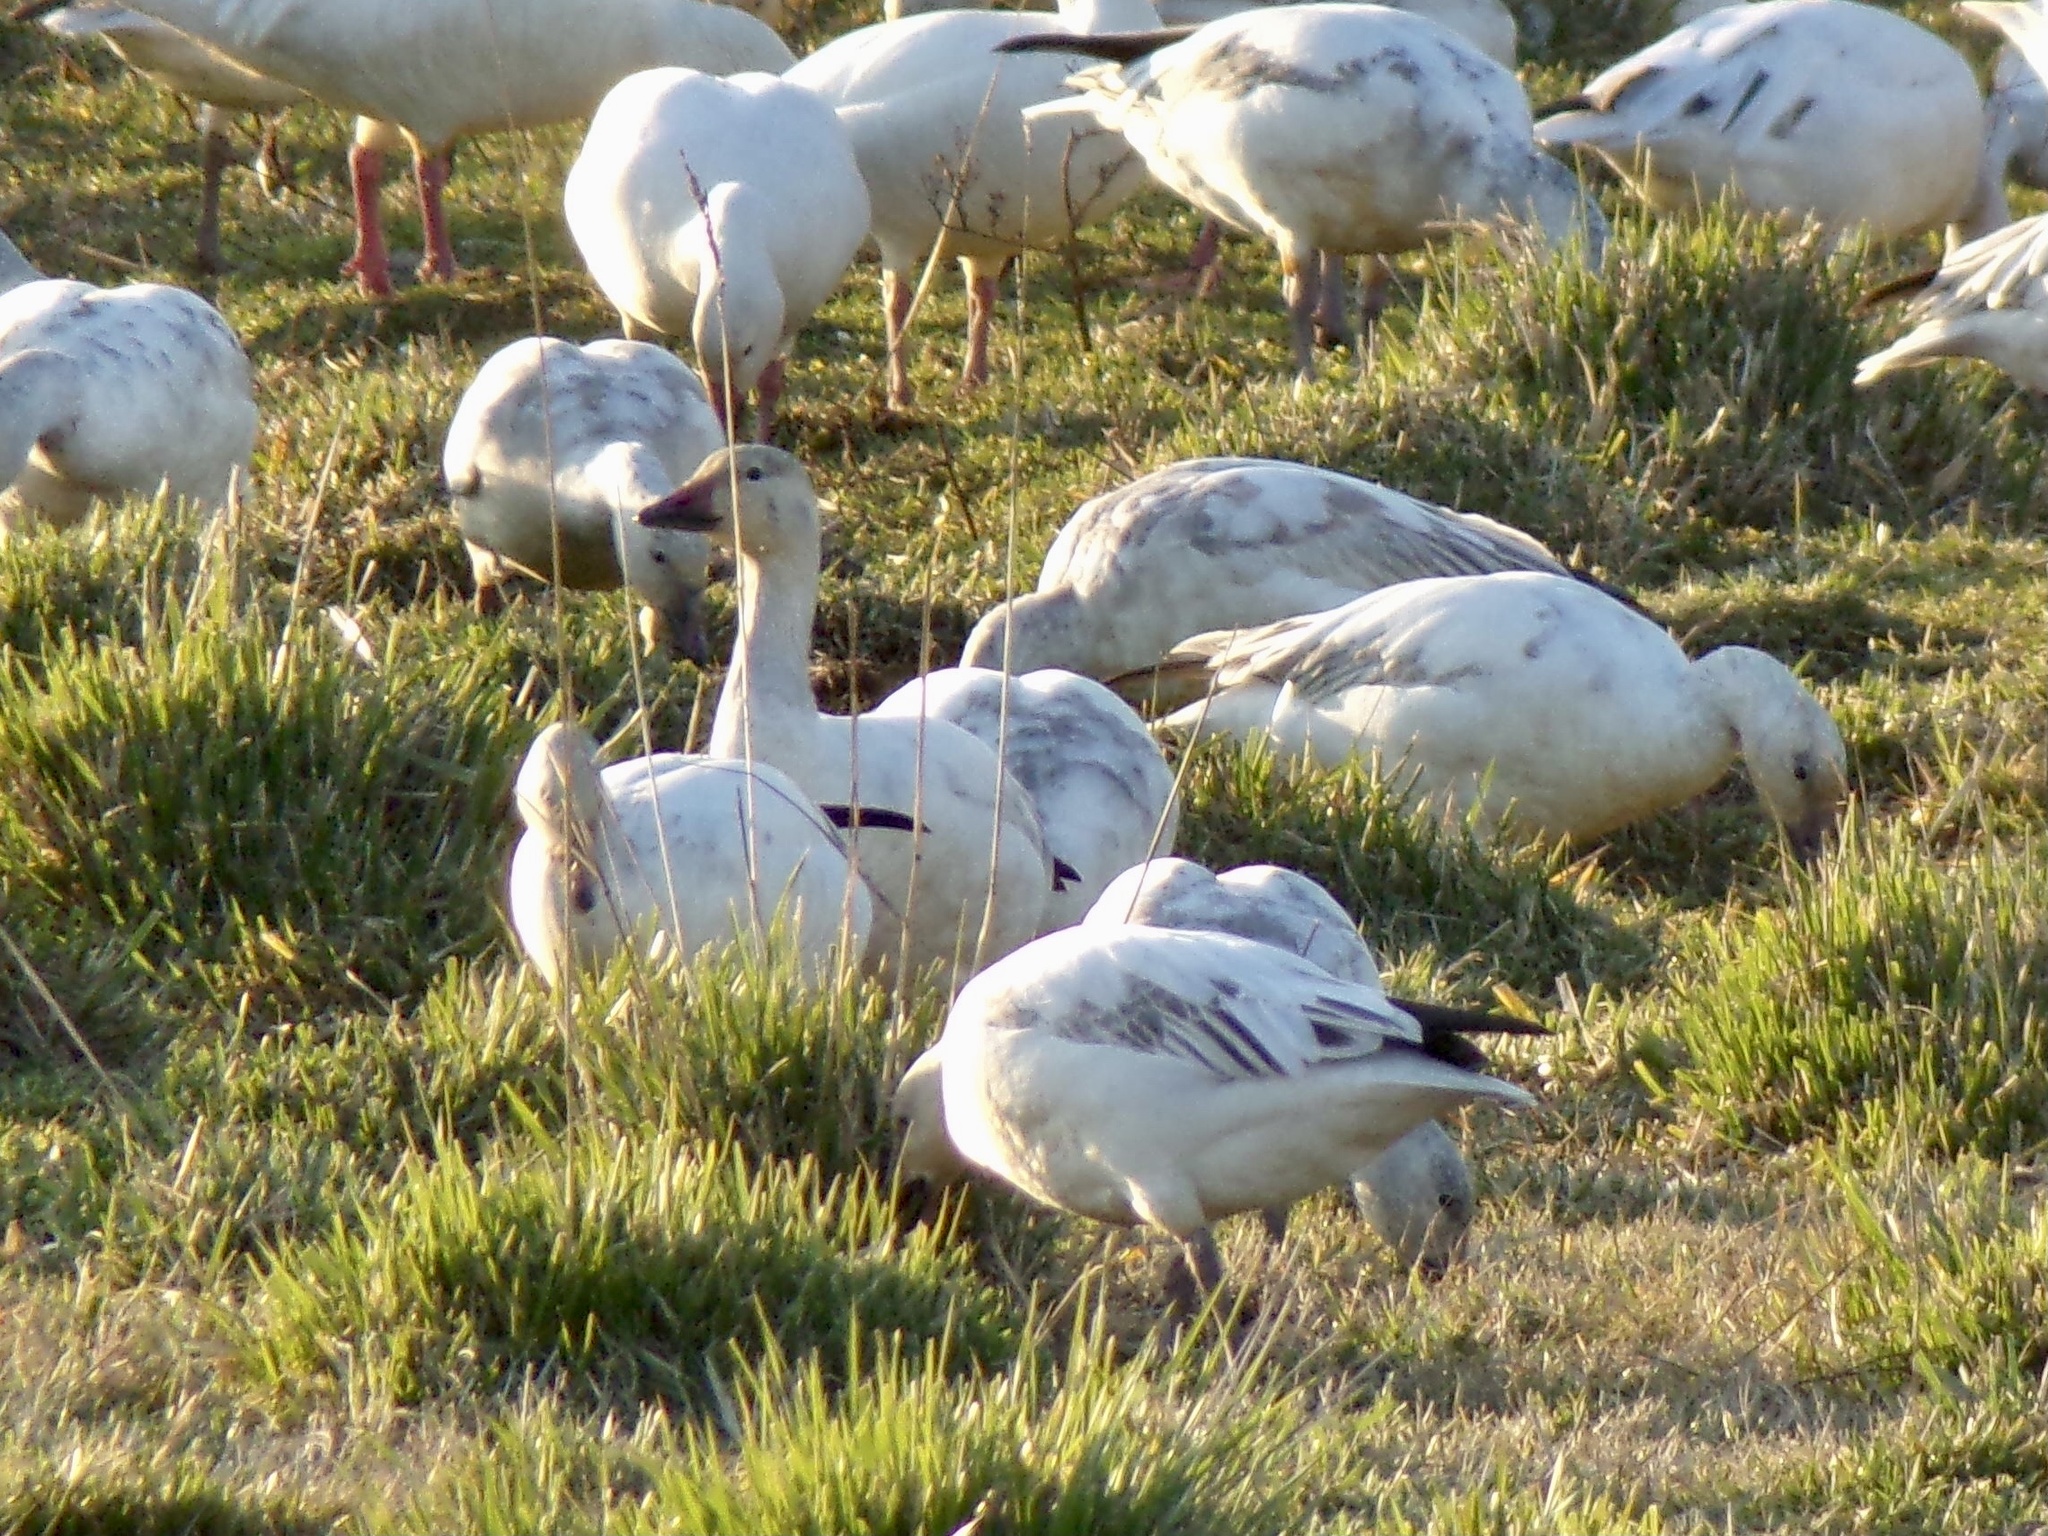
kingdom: Animalia
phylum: Chordata
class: Aves
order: Anseriformes
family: Anatidae
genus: Anser
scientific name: Anser caerulescens
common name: Snow goose
